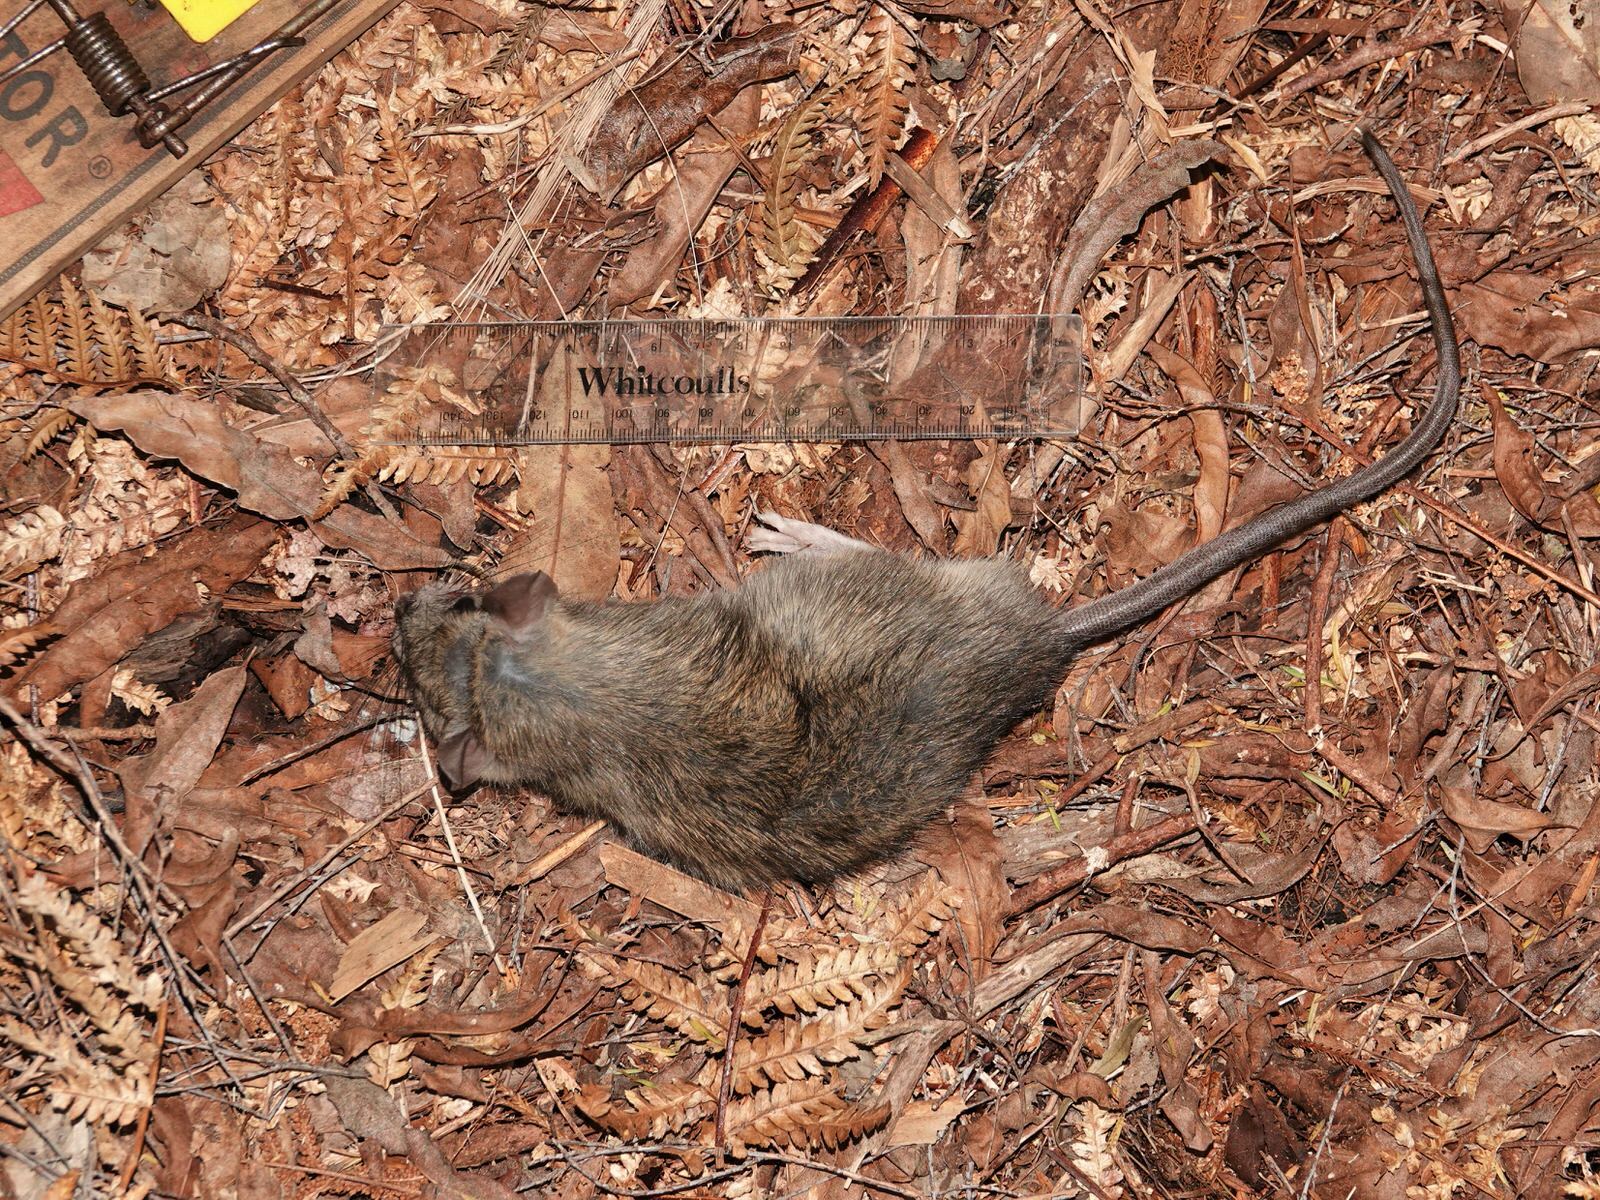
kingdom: Animalia
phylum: Chordata
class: Mammalia
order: Rodentia
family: Muridae
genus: Rattus
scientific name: Rattus rattus
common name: Black rat
